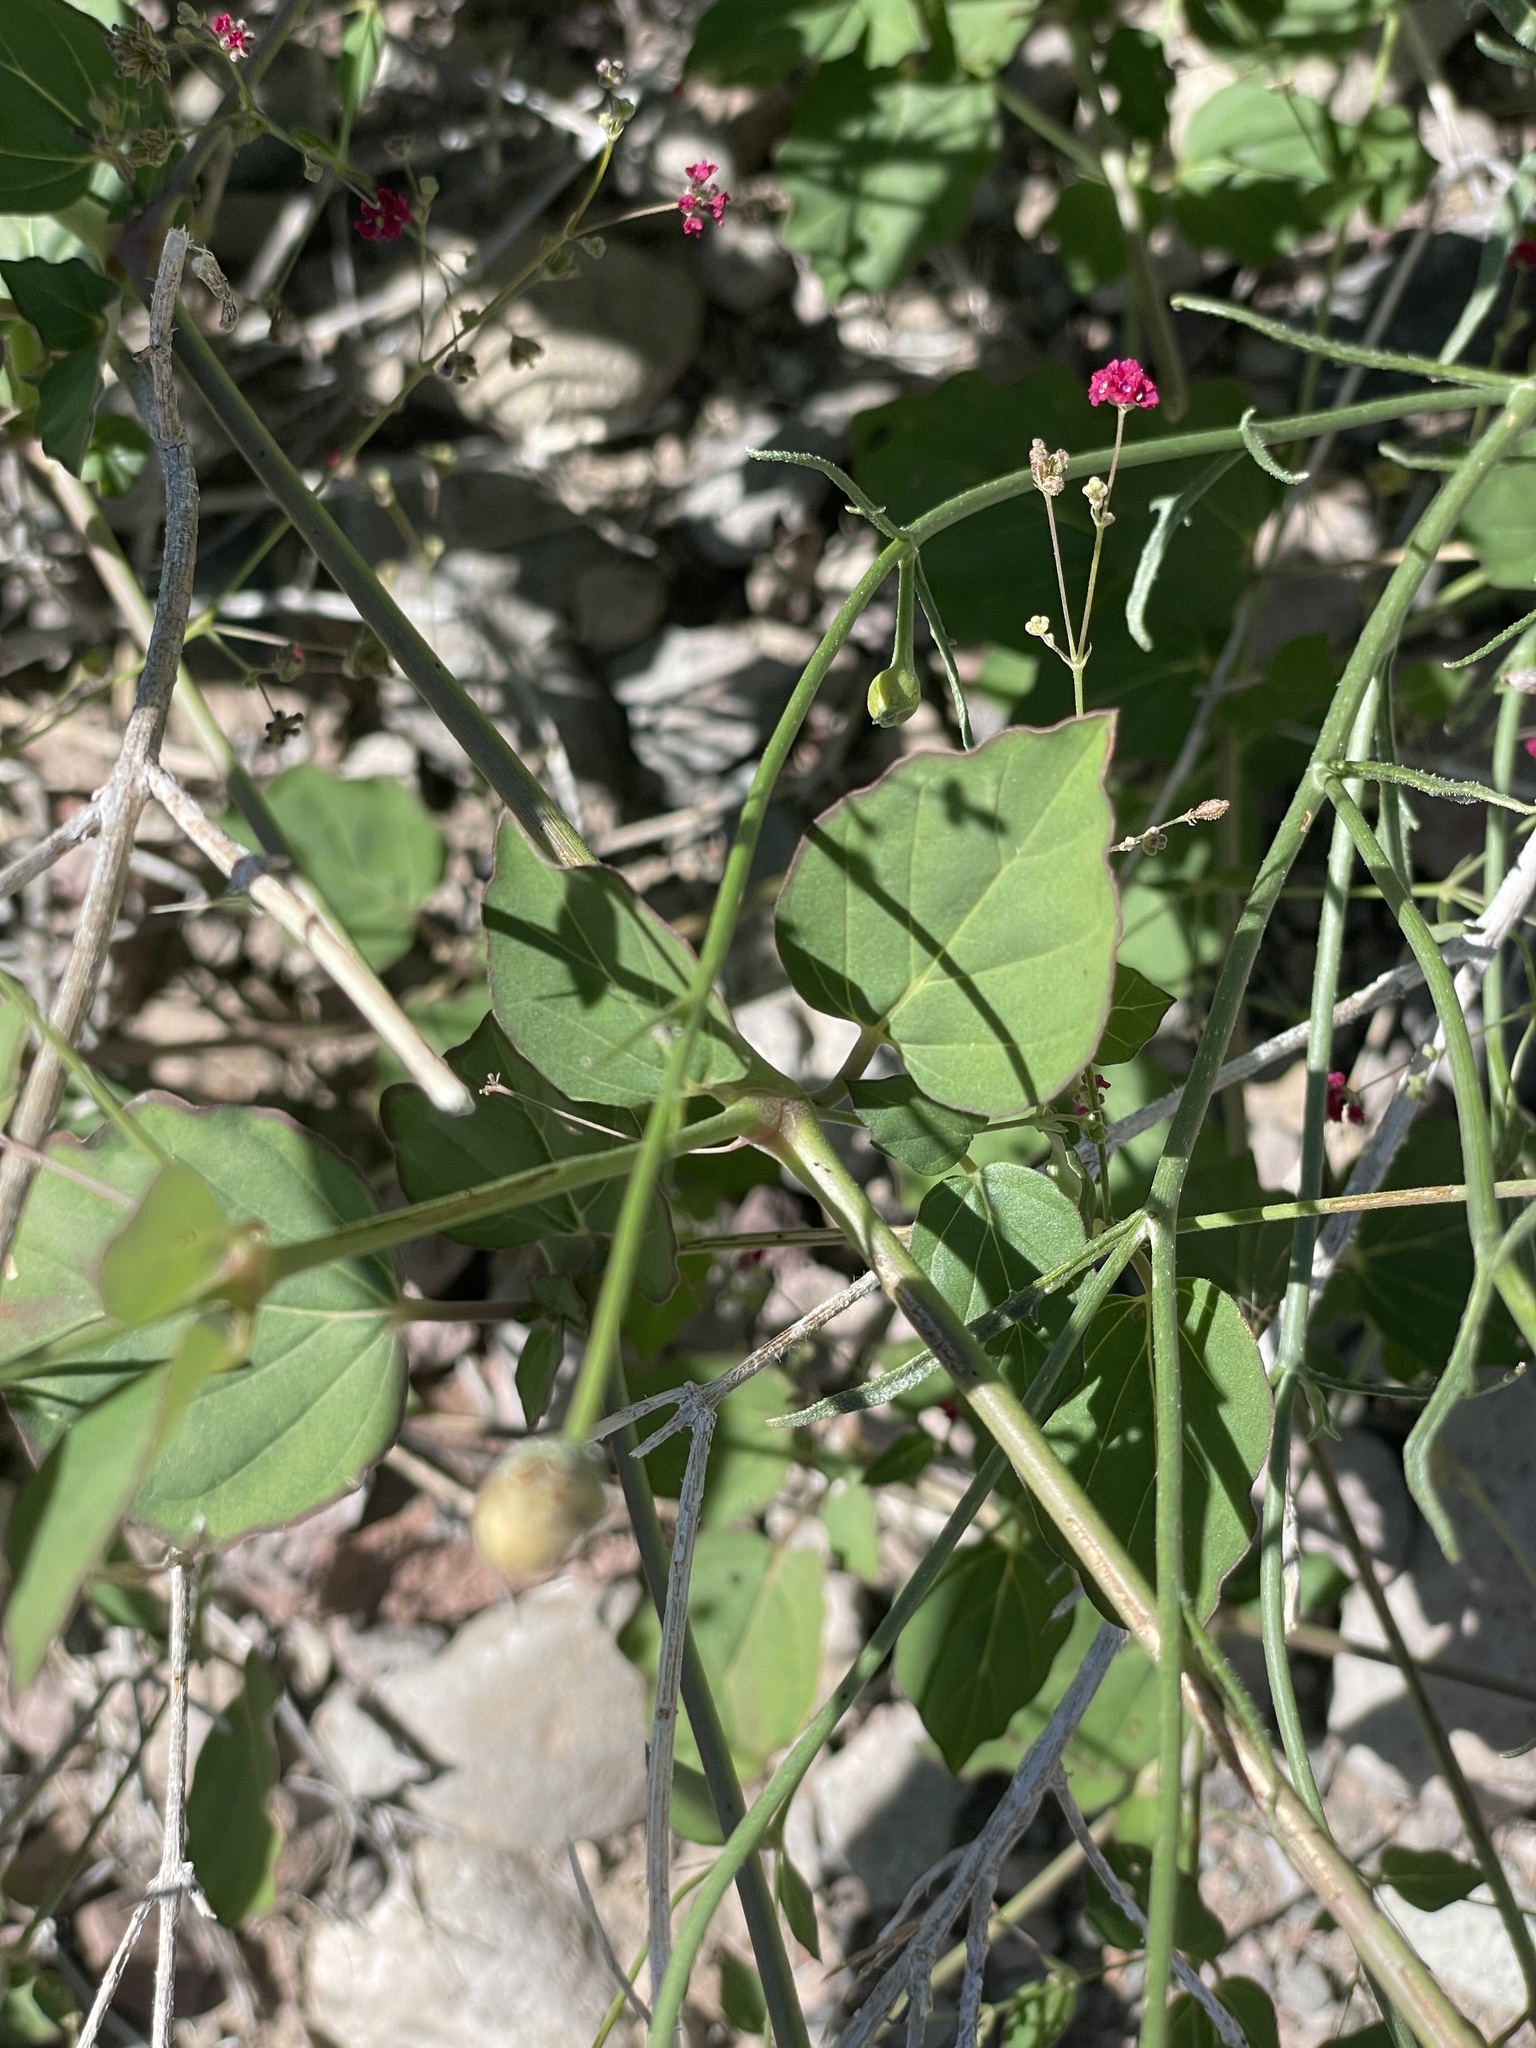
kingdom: Plantae
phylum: Tracheophyta
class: Magnoliopsida
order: Caryophyllales
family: Nyctaginaceae
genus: Boerhavia
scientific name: Boerhavia coccinea
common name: Scarlet spiderling
